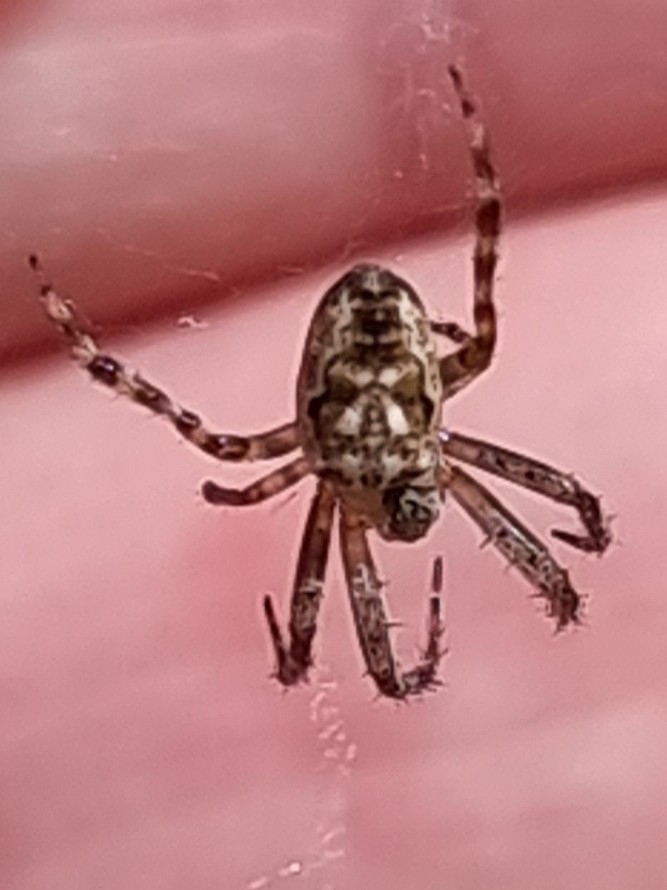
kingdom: Animalia
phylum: Arthropoda
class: Arachnida
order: Araneae
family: Araneidae
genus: Plebs
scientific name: Plebs eburnus
